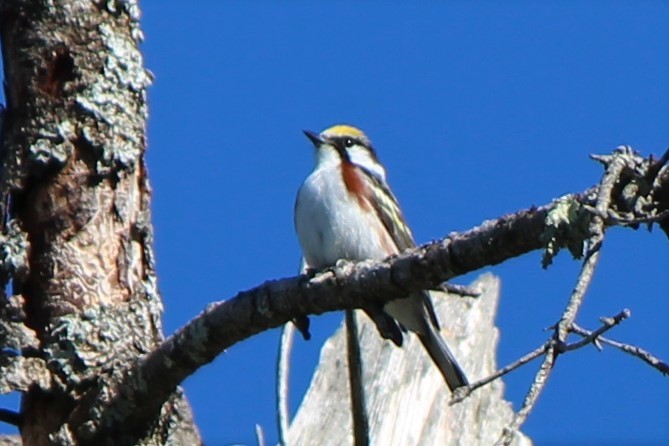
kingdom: Animalia
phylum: Chordata
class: Aves
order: Passeriformes
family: Parulidae
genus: Setophaga
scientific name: Setophaga pensylvanica
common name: Chestnut-sided warbler
